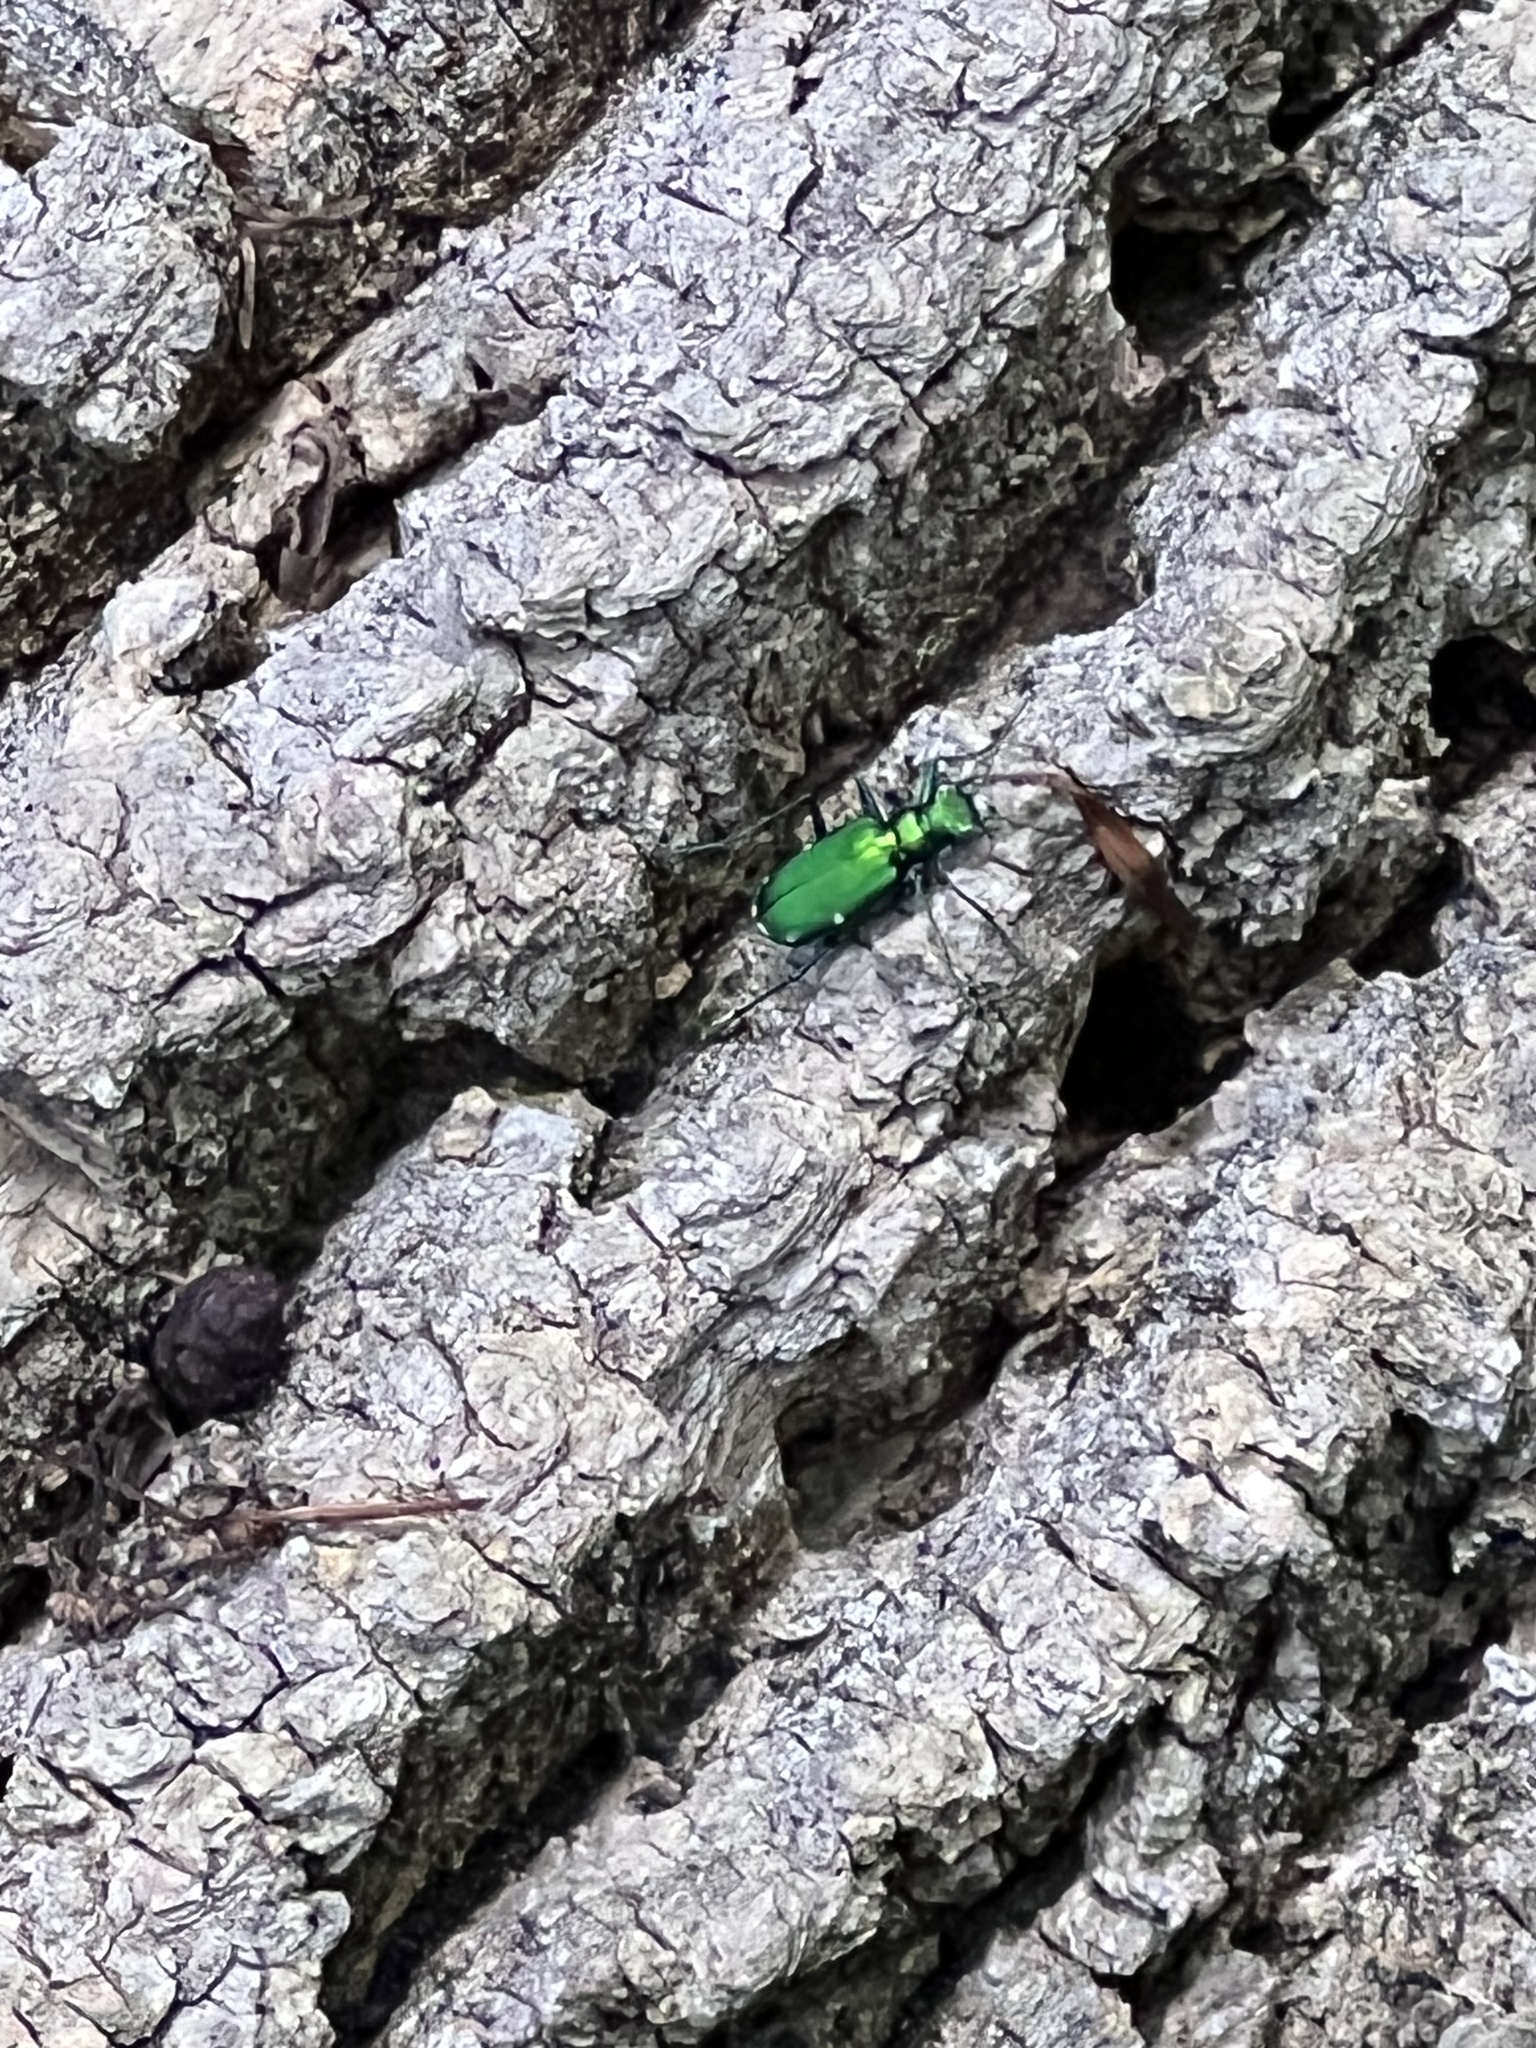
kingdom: Animalia
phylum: Arthropoda
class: Insecta
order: Coleoptera
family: Carabidae
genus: Cicindela
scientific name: Cicindela sexguttata
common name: Six-spotted tiger beetle
